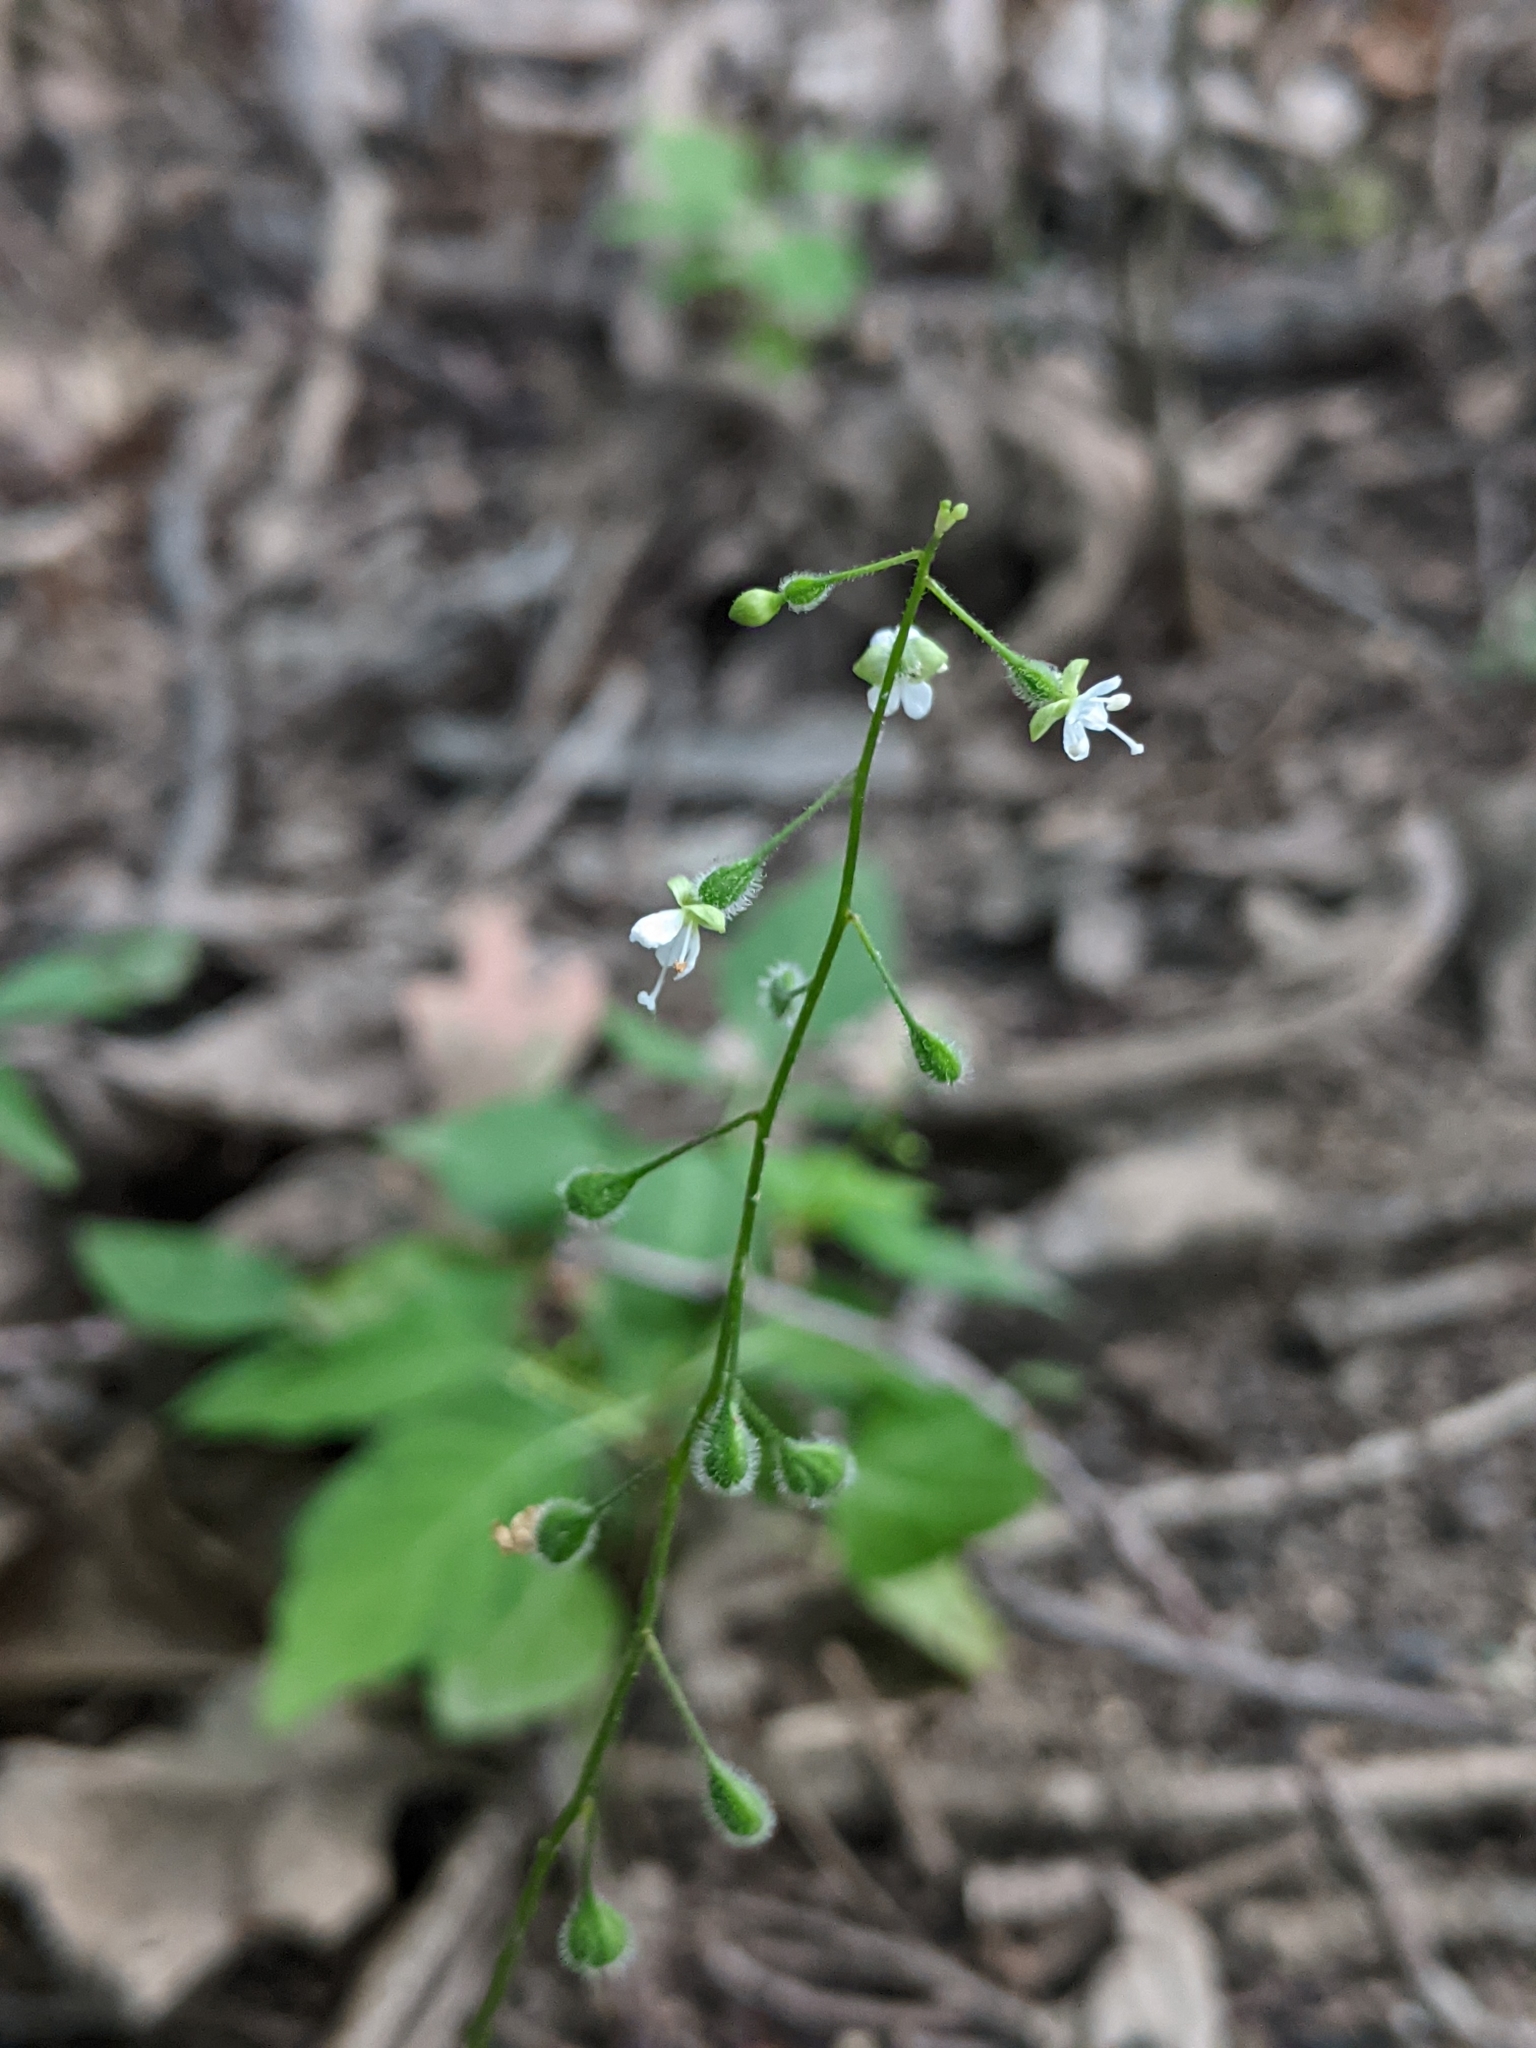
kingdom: Plantae
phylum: Tracheophyta
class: Magnoliopsida
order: Myrtales
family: Onagraceae
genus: Circaea
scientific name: Circaea canadensis
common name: Broad-leaved enchanter's nightshade
